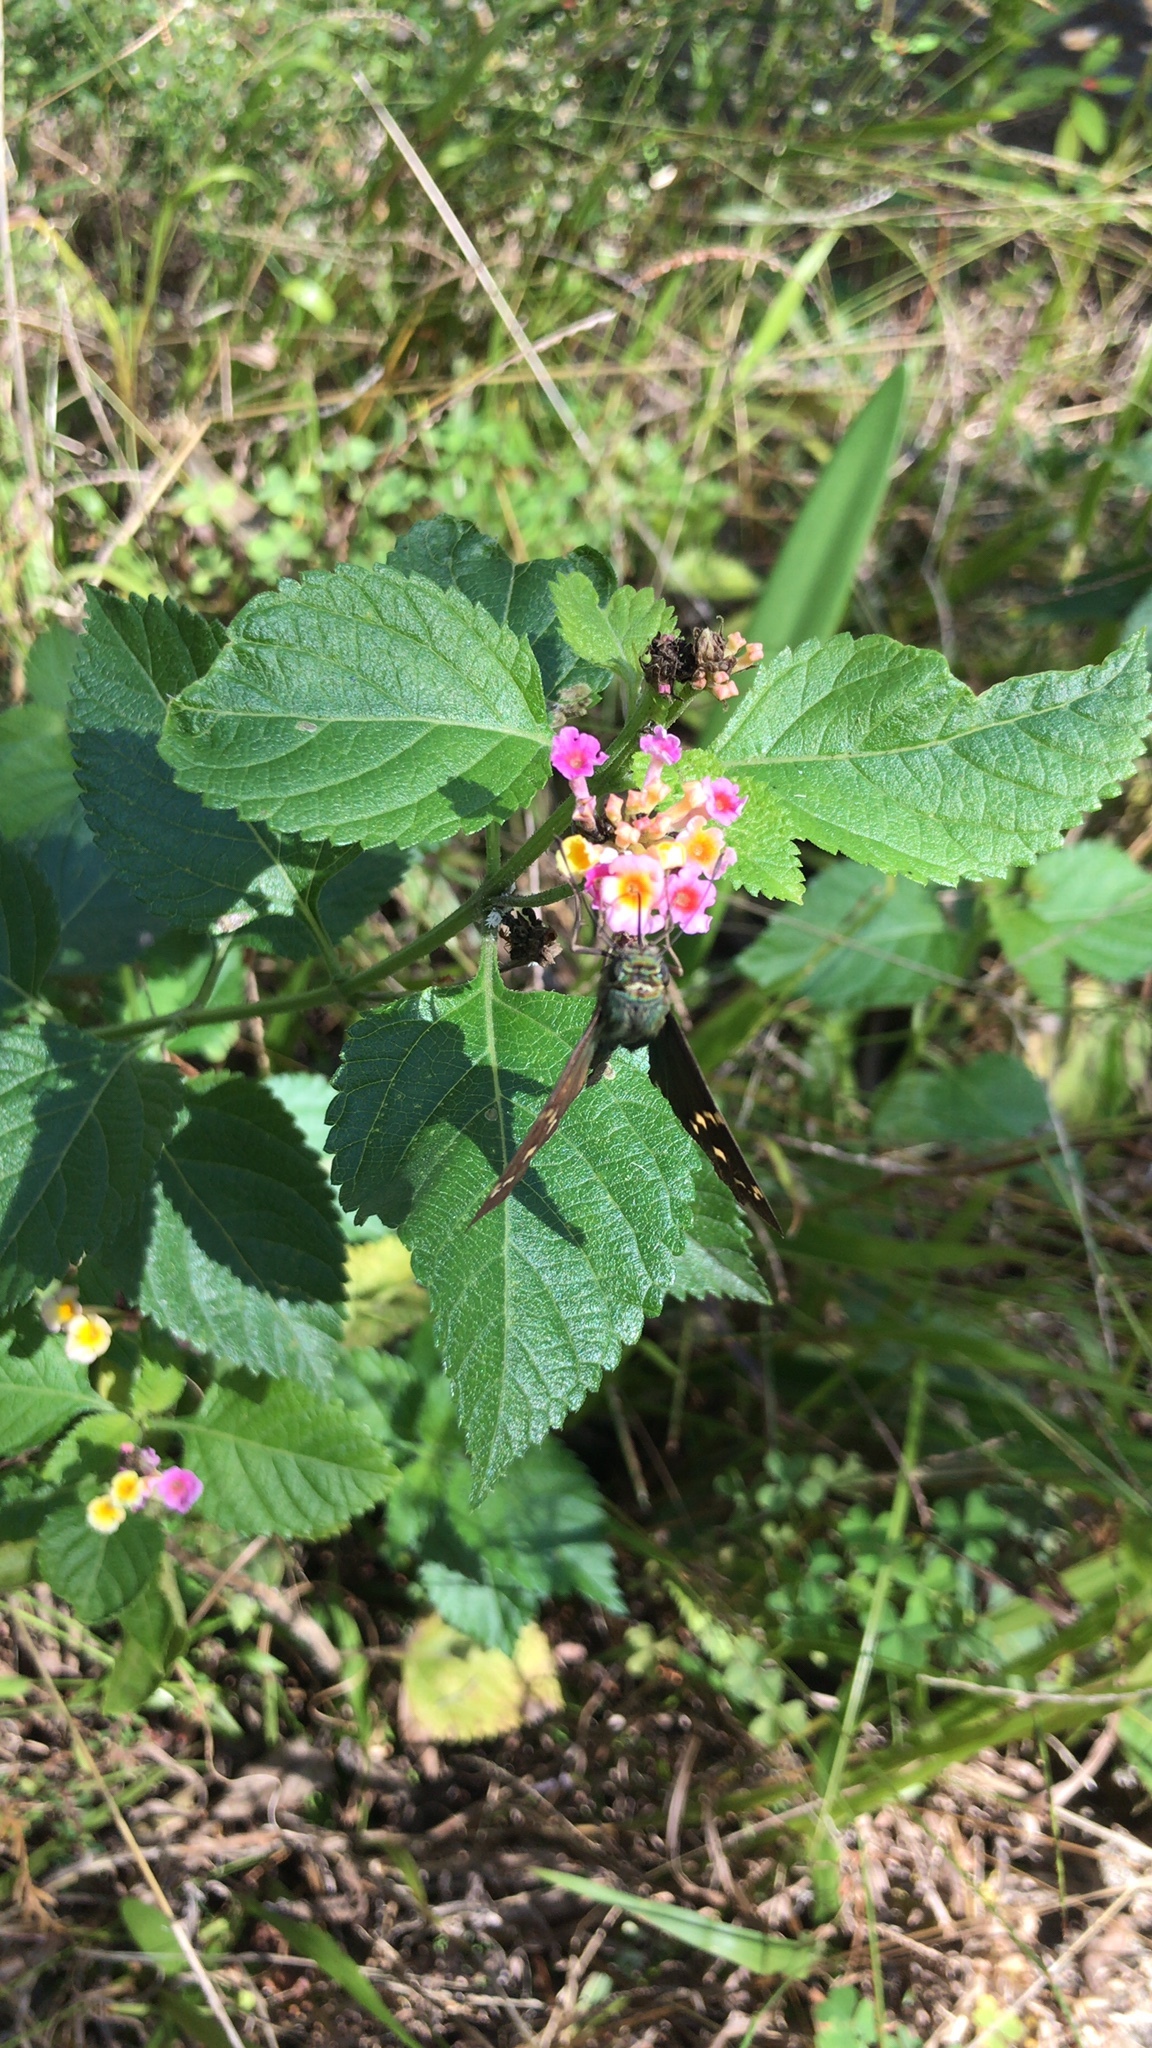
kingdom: Animalia
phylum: Arthropoda
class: Insecta
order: Lepidoptera
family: Hesperiidae
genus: Urbanus
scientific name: Urbanus proteus
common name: Long-tailed skipper
